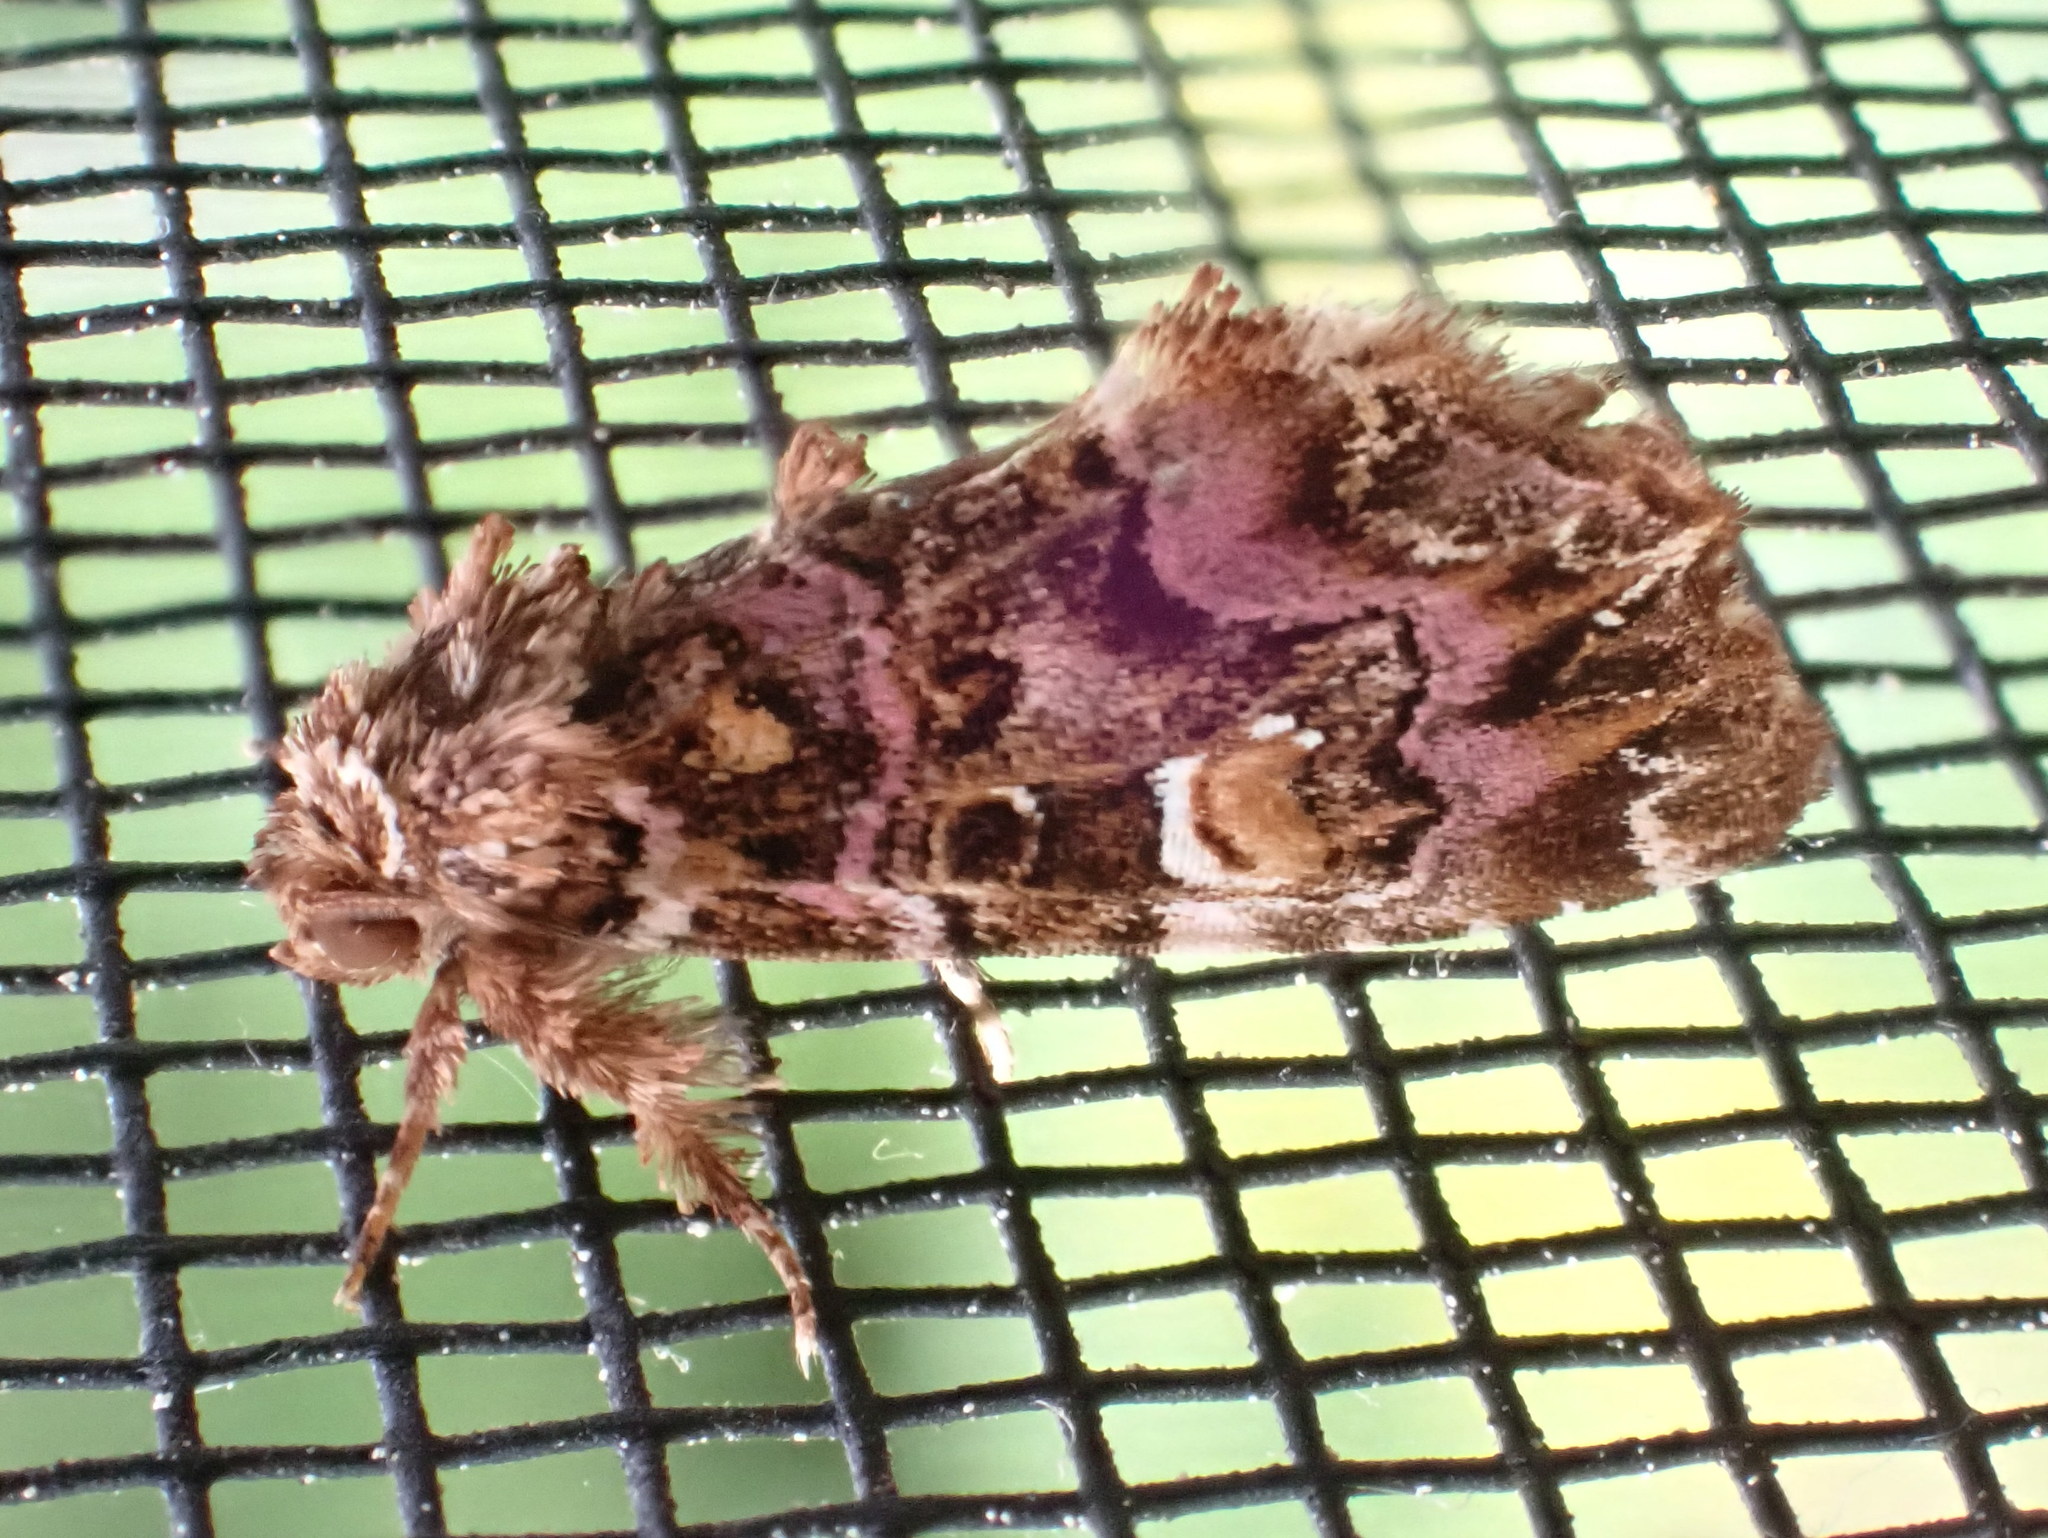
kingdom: Animalia
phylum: Arthropoda
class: Insecta
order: Lepidoptera
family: Noctuidae
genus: Callopistria
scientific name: Callopistria mollissima
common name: Pink-shaded fern moth
